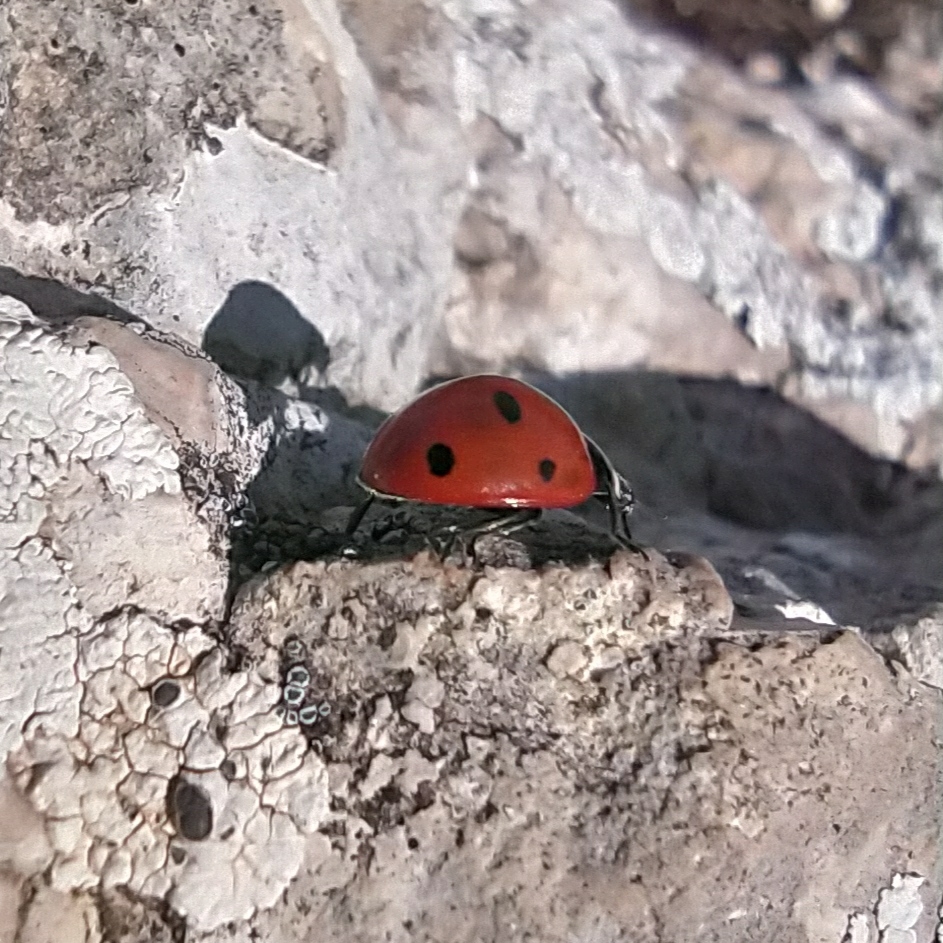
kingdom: Animalia
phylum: Arthropoda
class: Insecta
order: Coleoptera
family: Coccinellidae
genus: Coccinella
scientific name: Coccinella septempunctata
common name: Sevenspotted lady beetle
